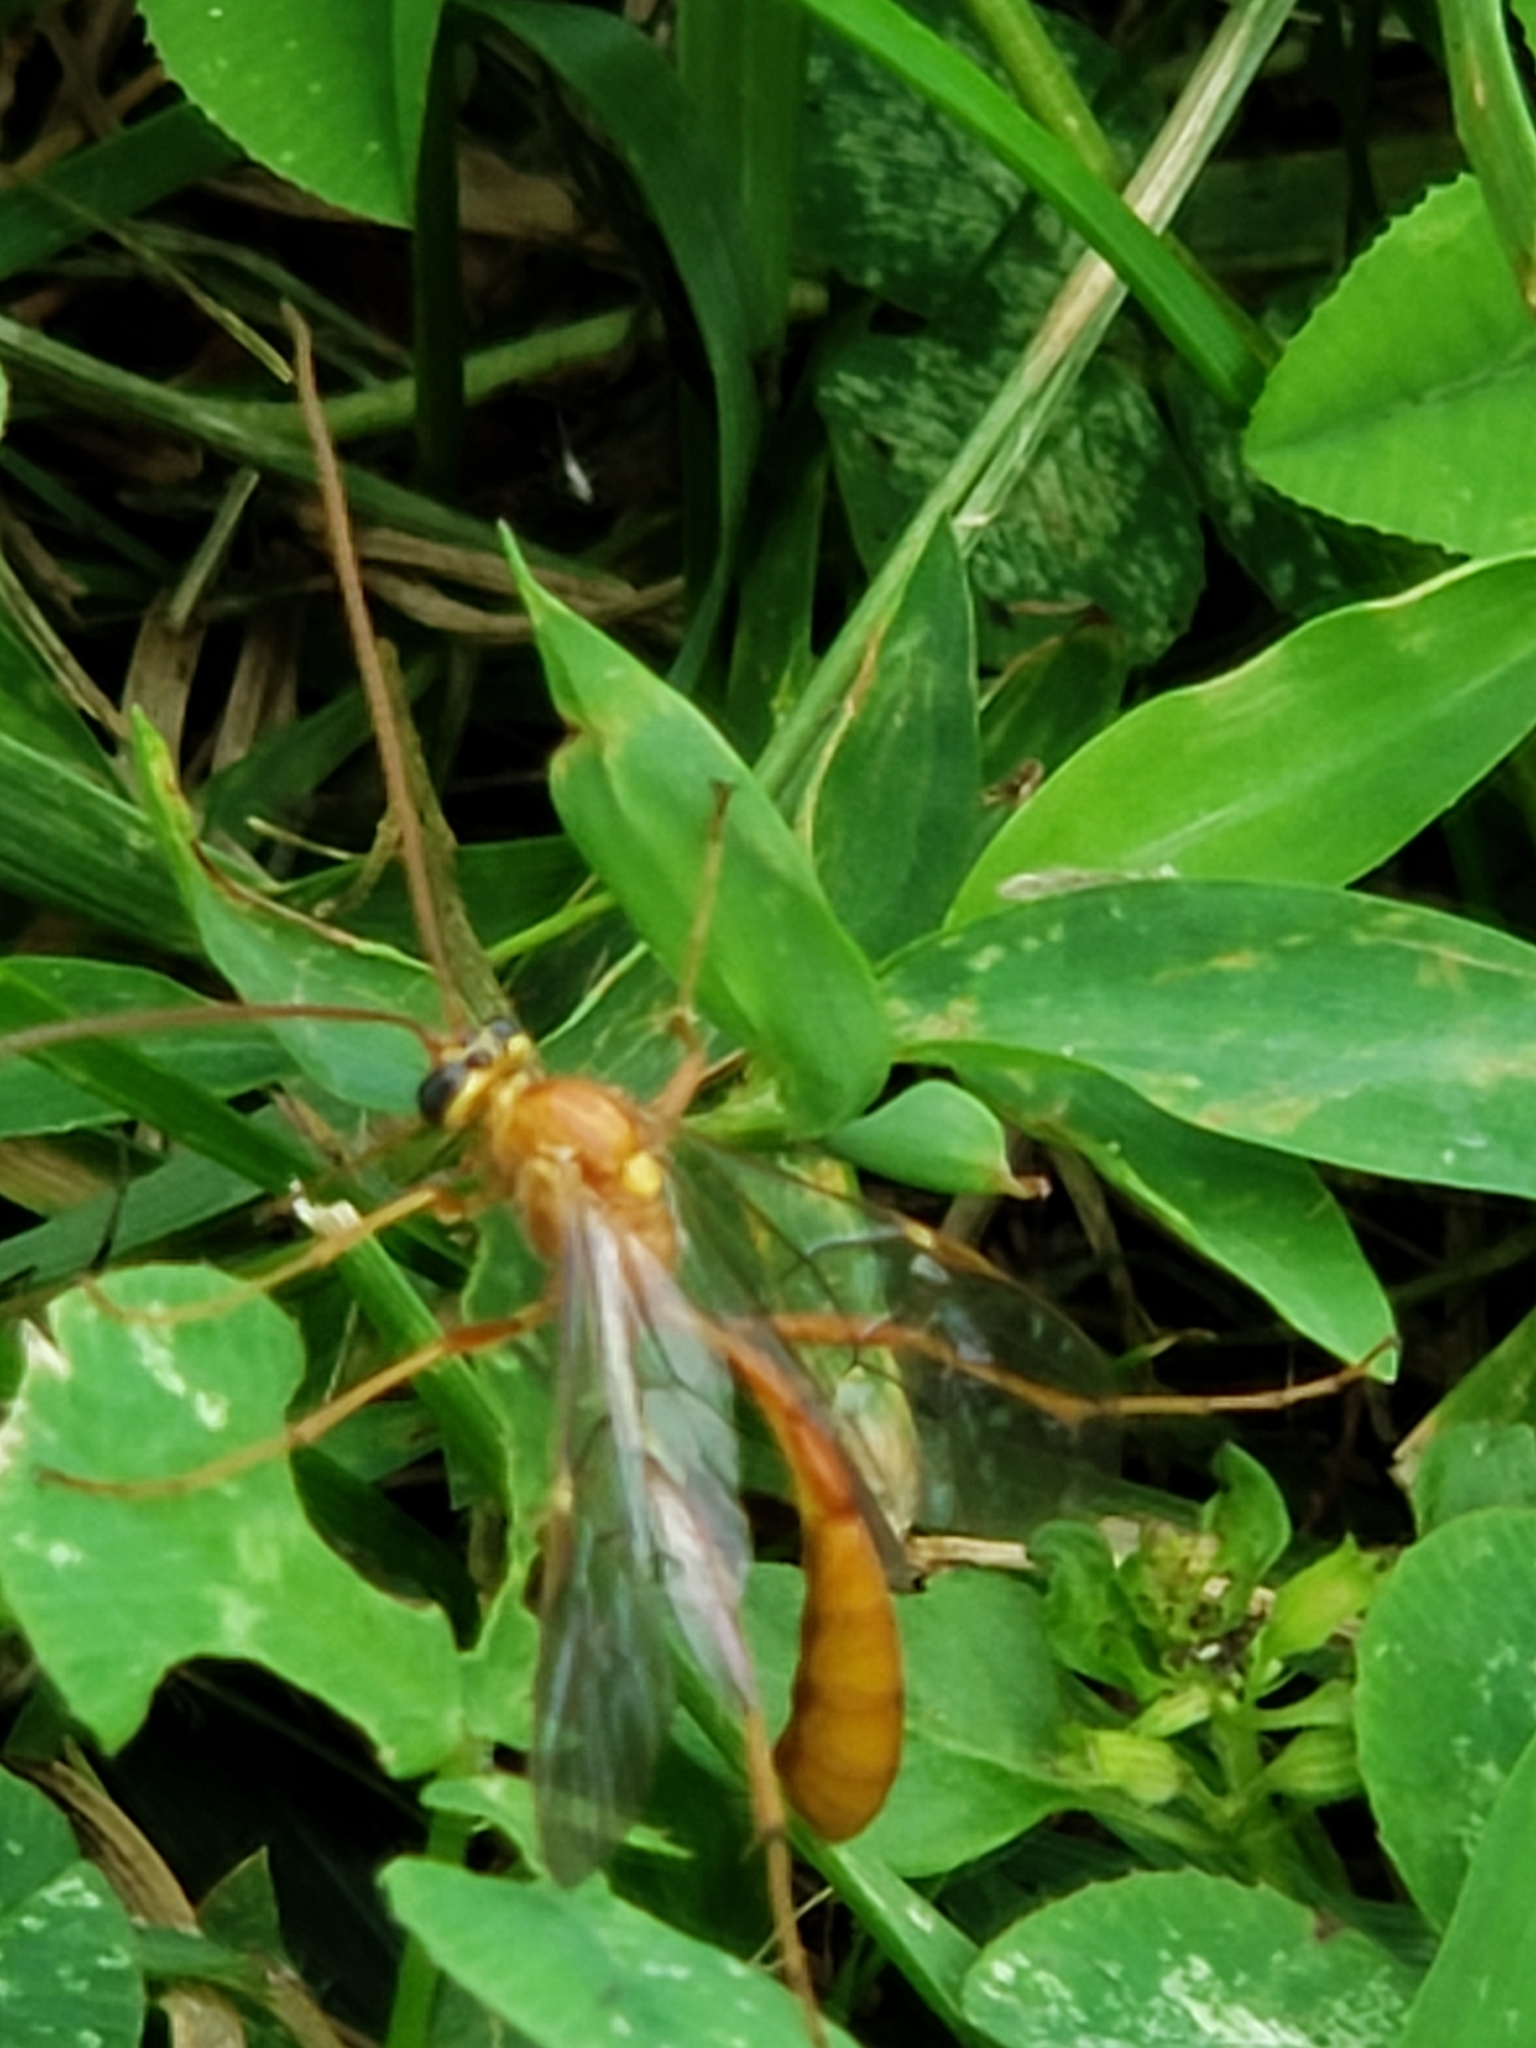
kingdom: Animalia
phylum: Arthropoda
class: Insecta
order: Hymenoptera
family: Ichneumonidae
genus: Ophion
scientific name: Ophion
